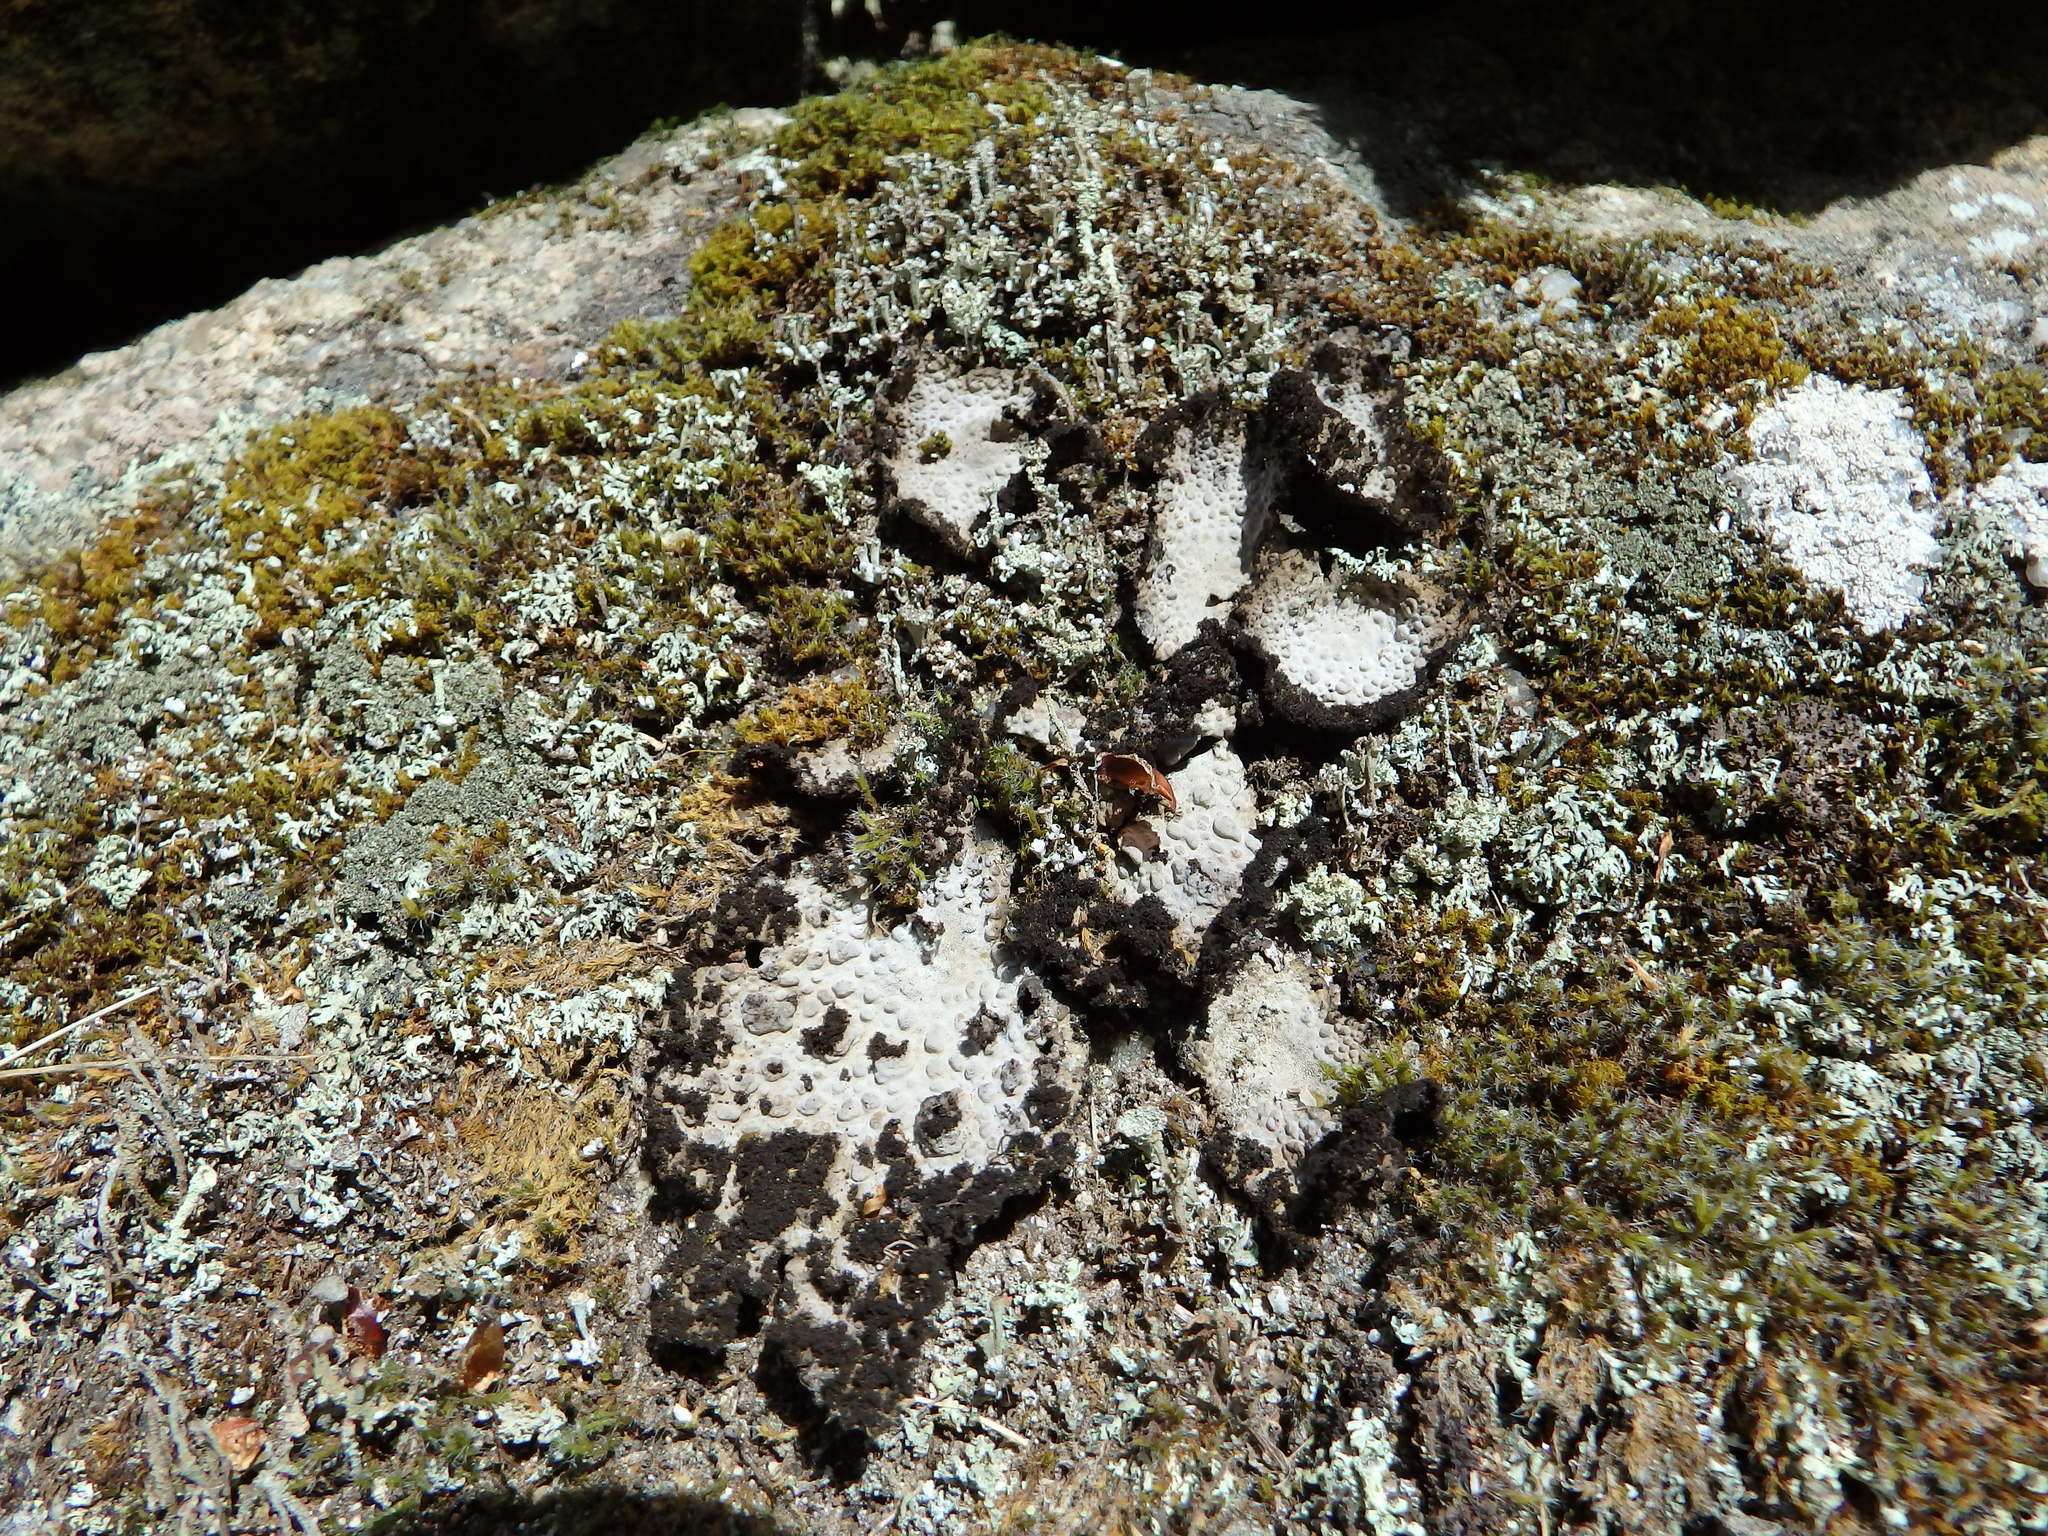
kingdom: Fungi
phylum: Ascomycota
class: Lecanoromycetes
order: Umbilicariales
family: Umbilicariaceae
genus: Lasallia
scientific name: Lasallia pustulata
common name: Blistered toadskin lichen
